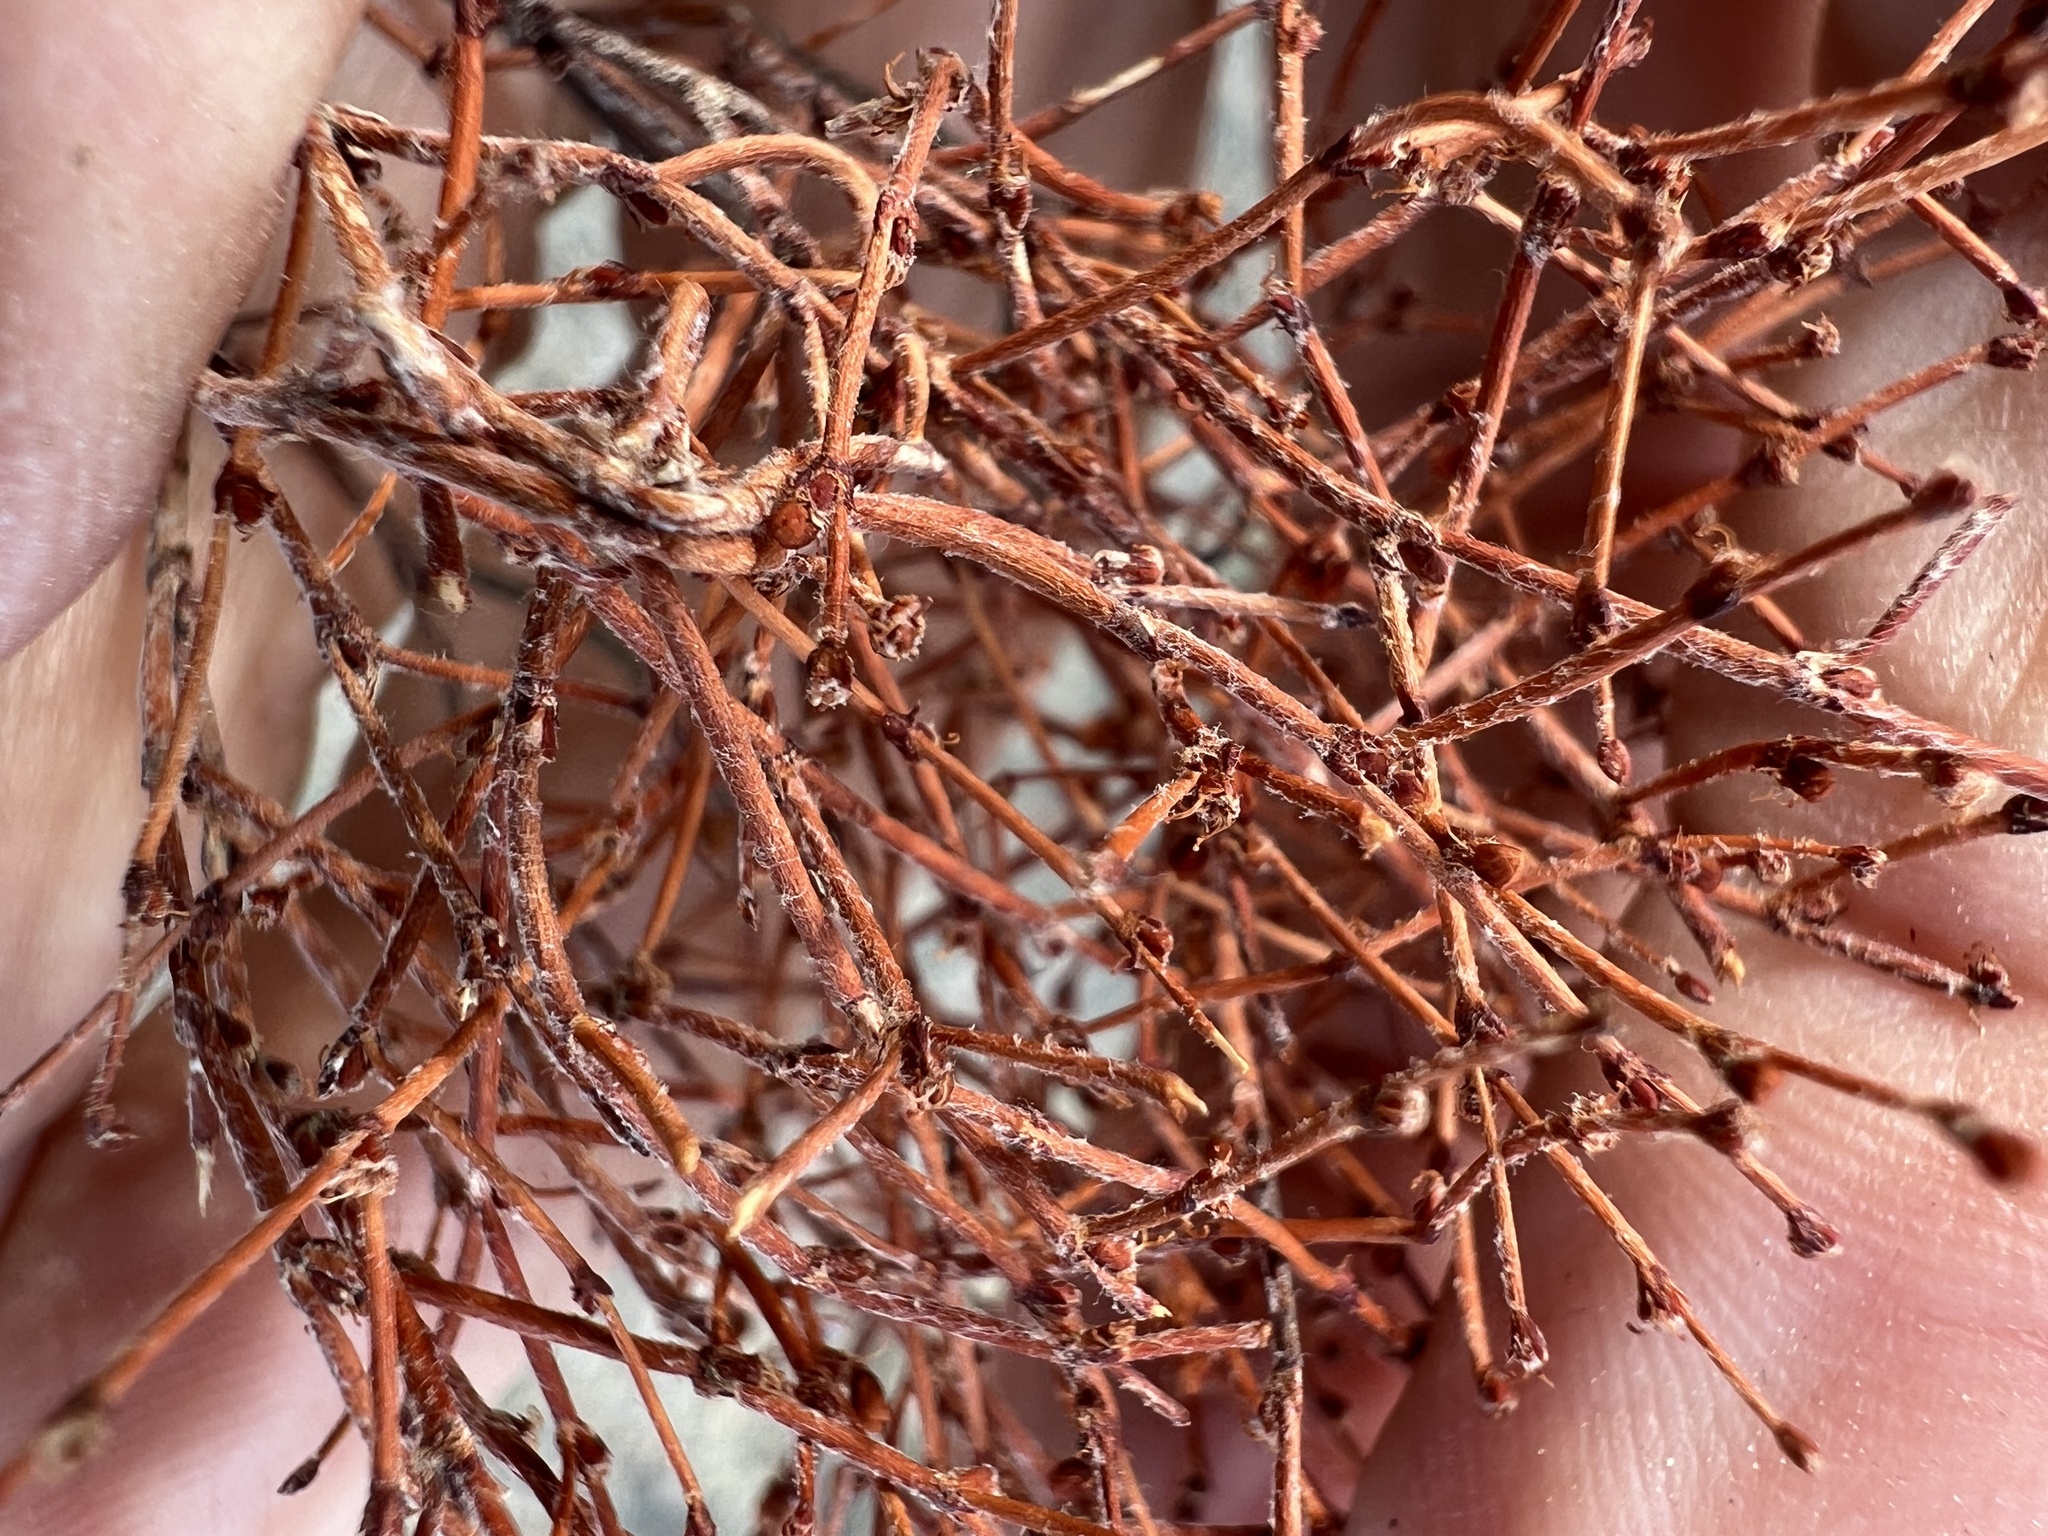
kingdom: Plantae
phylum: Tracheophyta
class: Magnoliopsida
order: Caryophyllales
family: Polygonaceae
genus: Eriogonum
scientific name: Eriogonum nidularium
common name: Bird's-nest wild buckwheat
